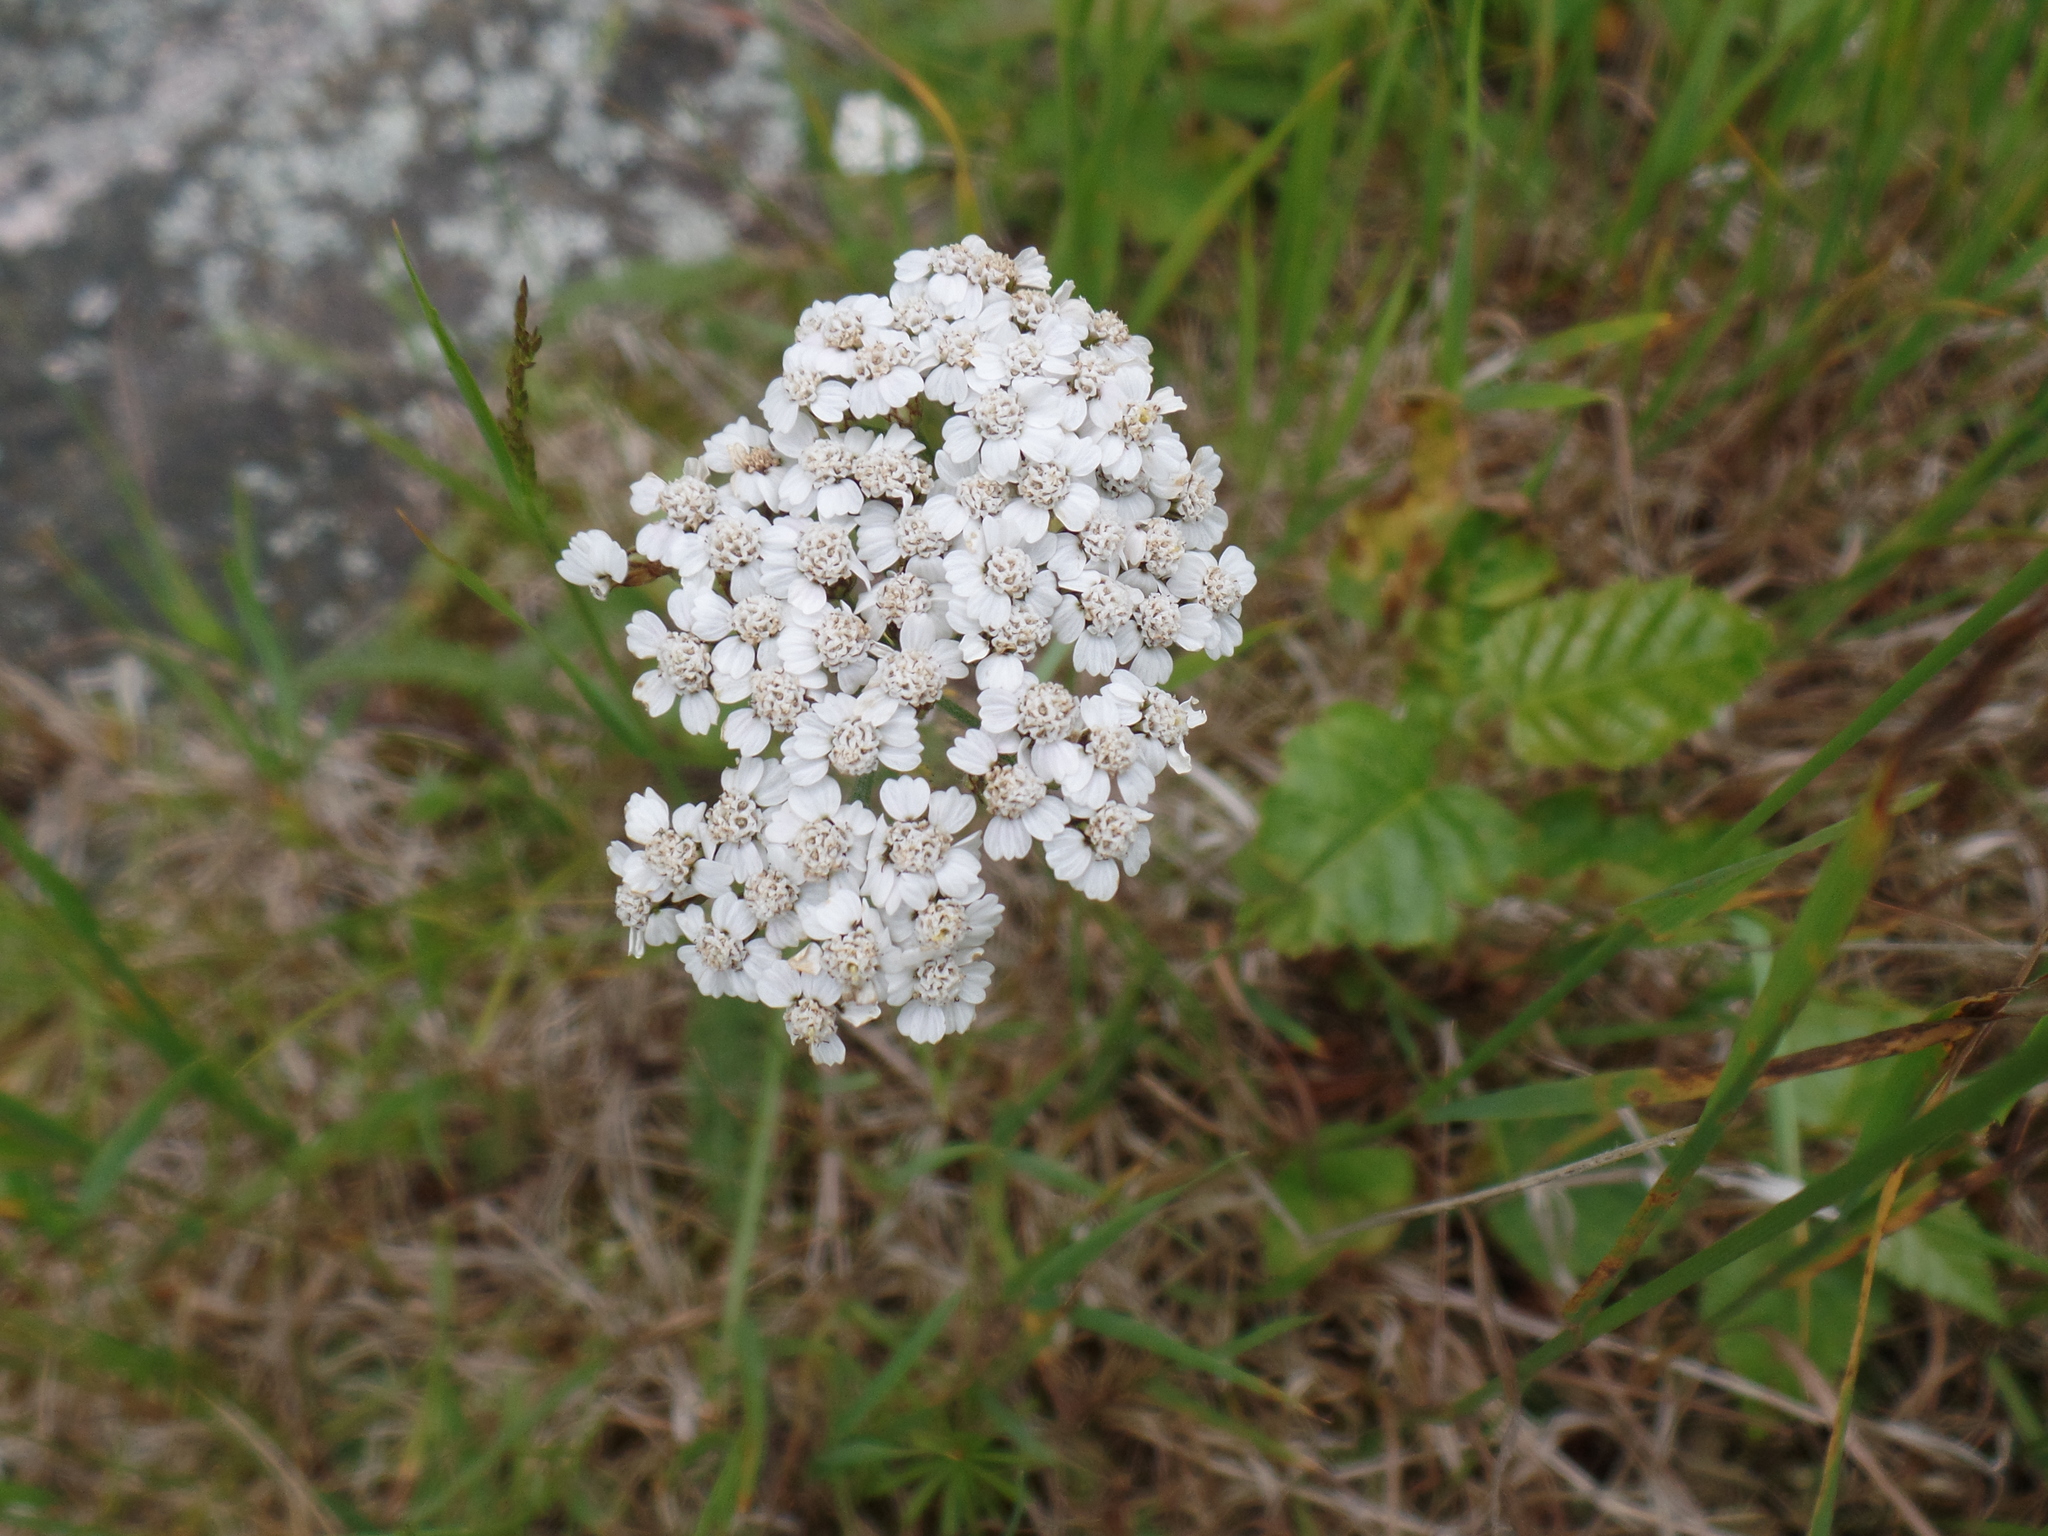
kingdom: Plantae
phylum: Tracheophyta
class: Magnoliopsida
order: Asterales
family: Asteraceae
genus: Achillea
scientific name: Achillea millefolium
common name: Yarrow
